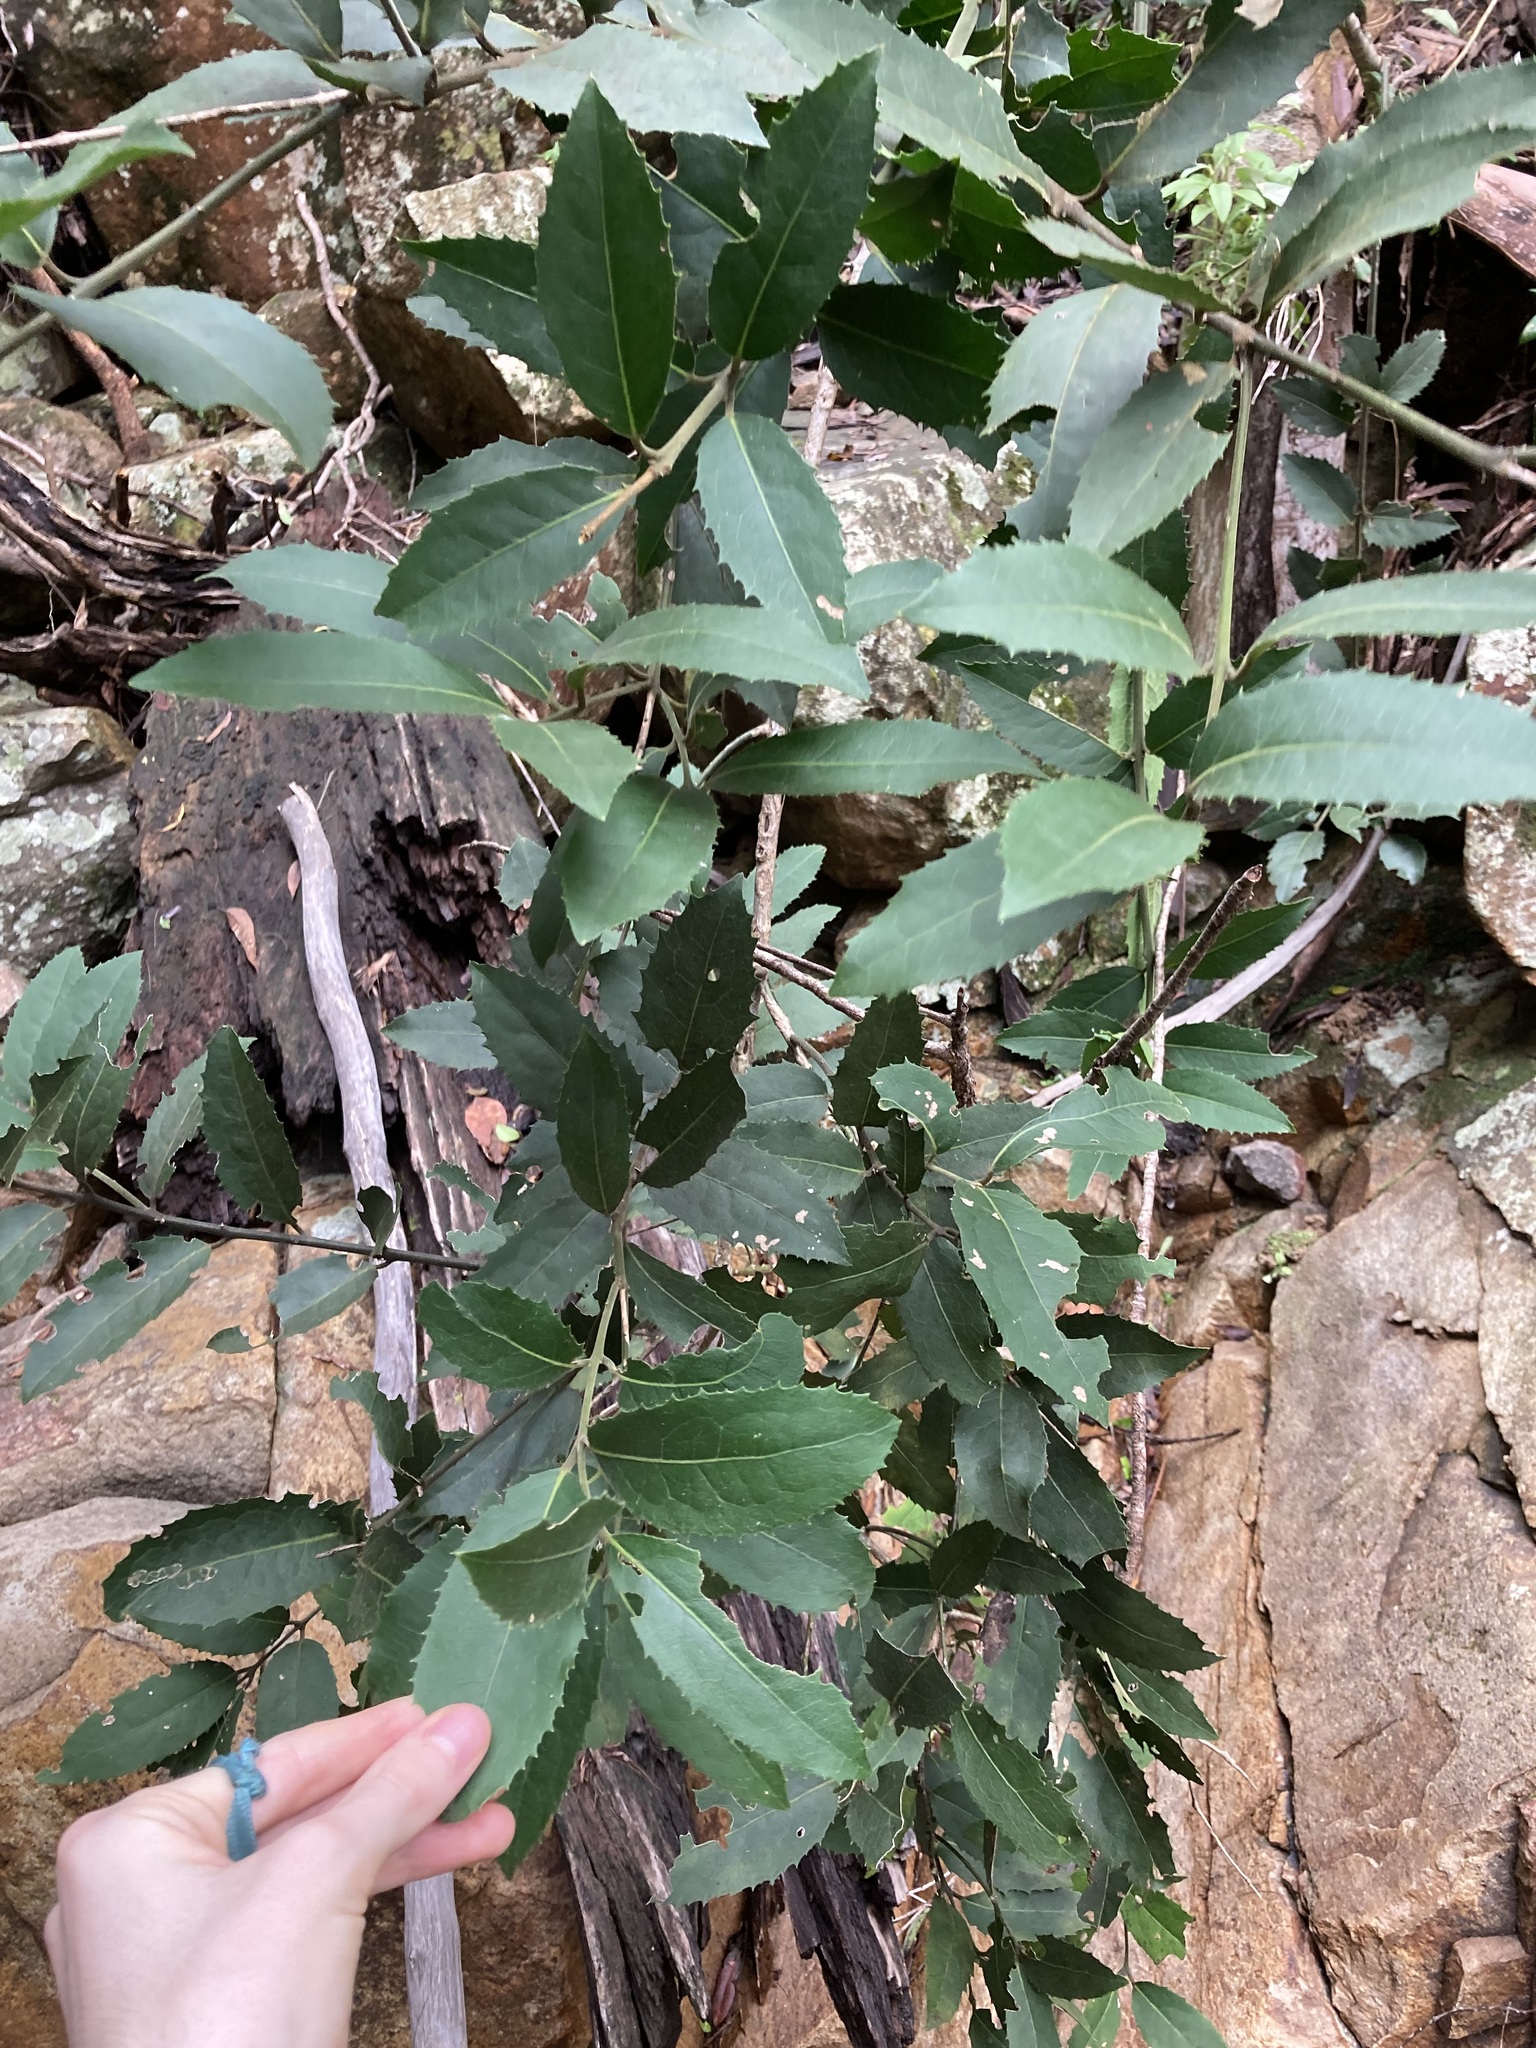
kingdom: Plantae
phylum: Tracheophyta
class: Magnoliopsida
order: Laurales
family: Monimiaceae
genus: Wilkiea
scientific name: Wilkiea hugeliana
